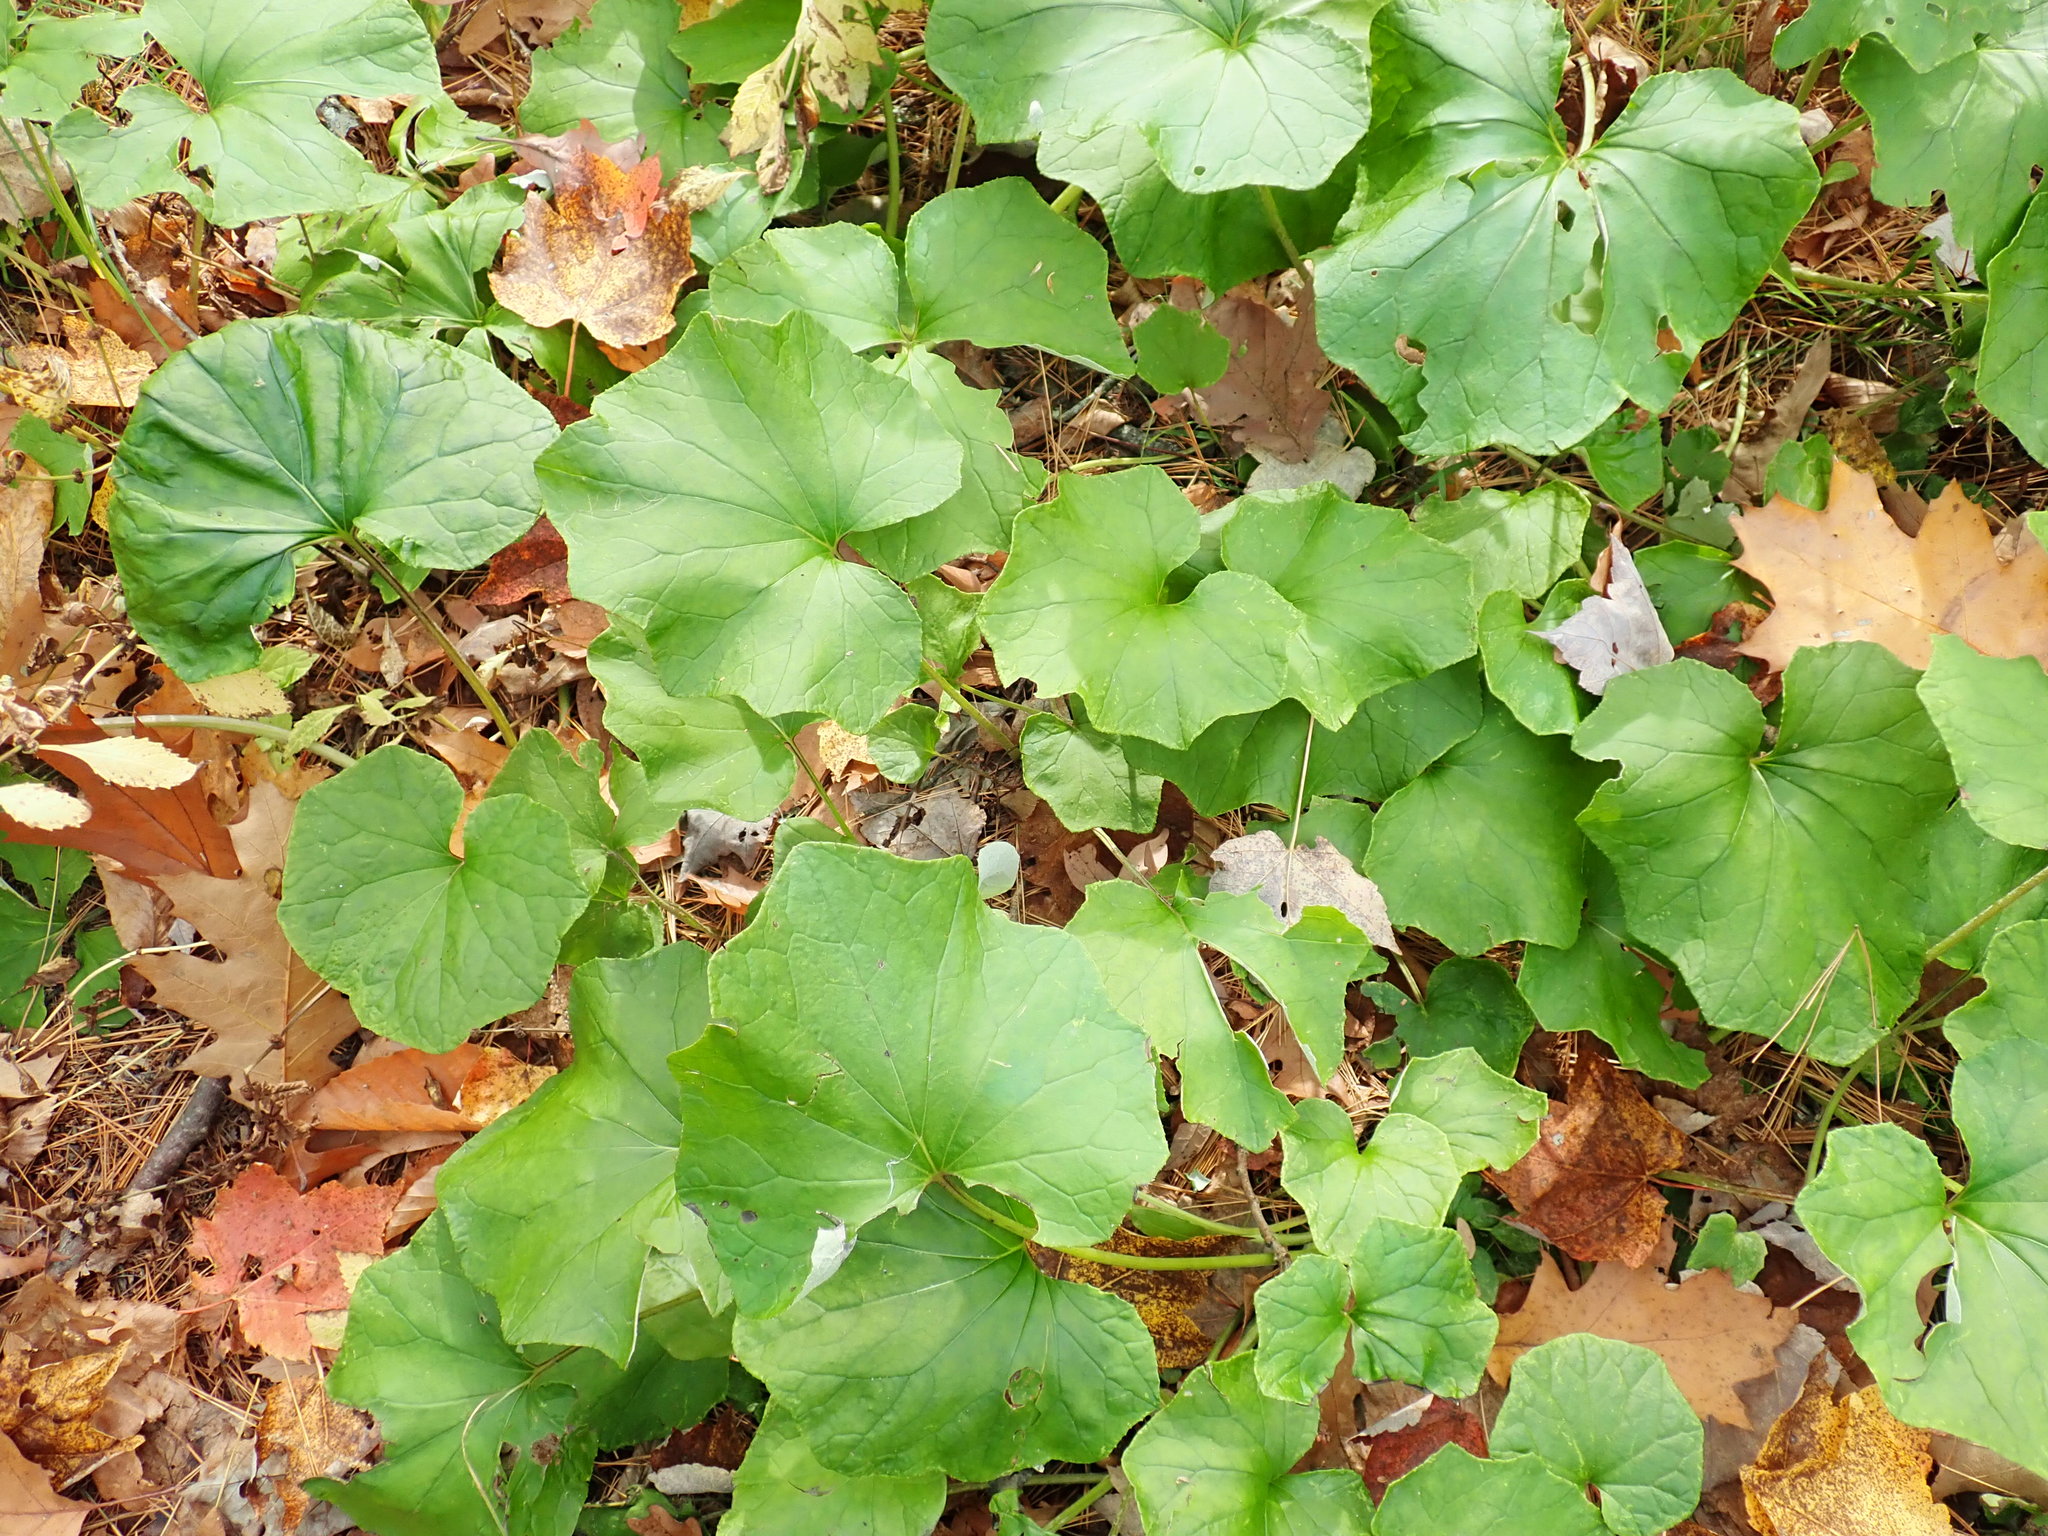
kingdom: Plantae
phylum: Tracheophyta
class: Magnoliopsida
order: Asterales
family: Asteraceae
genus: Tussilago
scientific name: Tussilago farfara
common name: Coltsfoot
